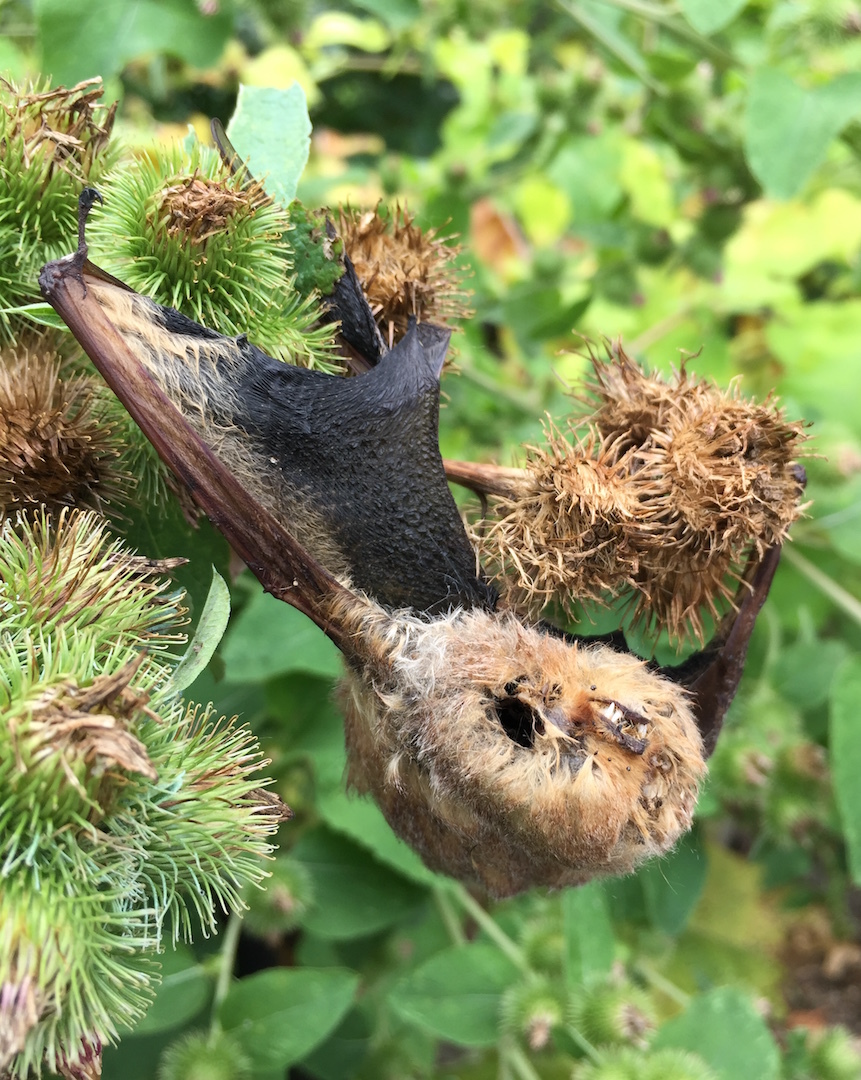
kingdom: Animalia
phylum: Chordata
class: Mammalia
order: Chiroptera
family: Vespertilionidae
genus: Lasiurus
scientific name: Lasiurus borealis
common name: Eastern red bat
